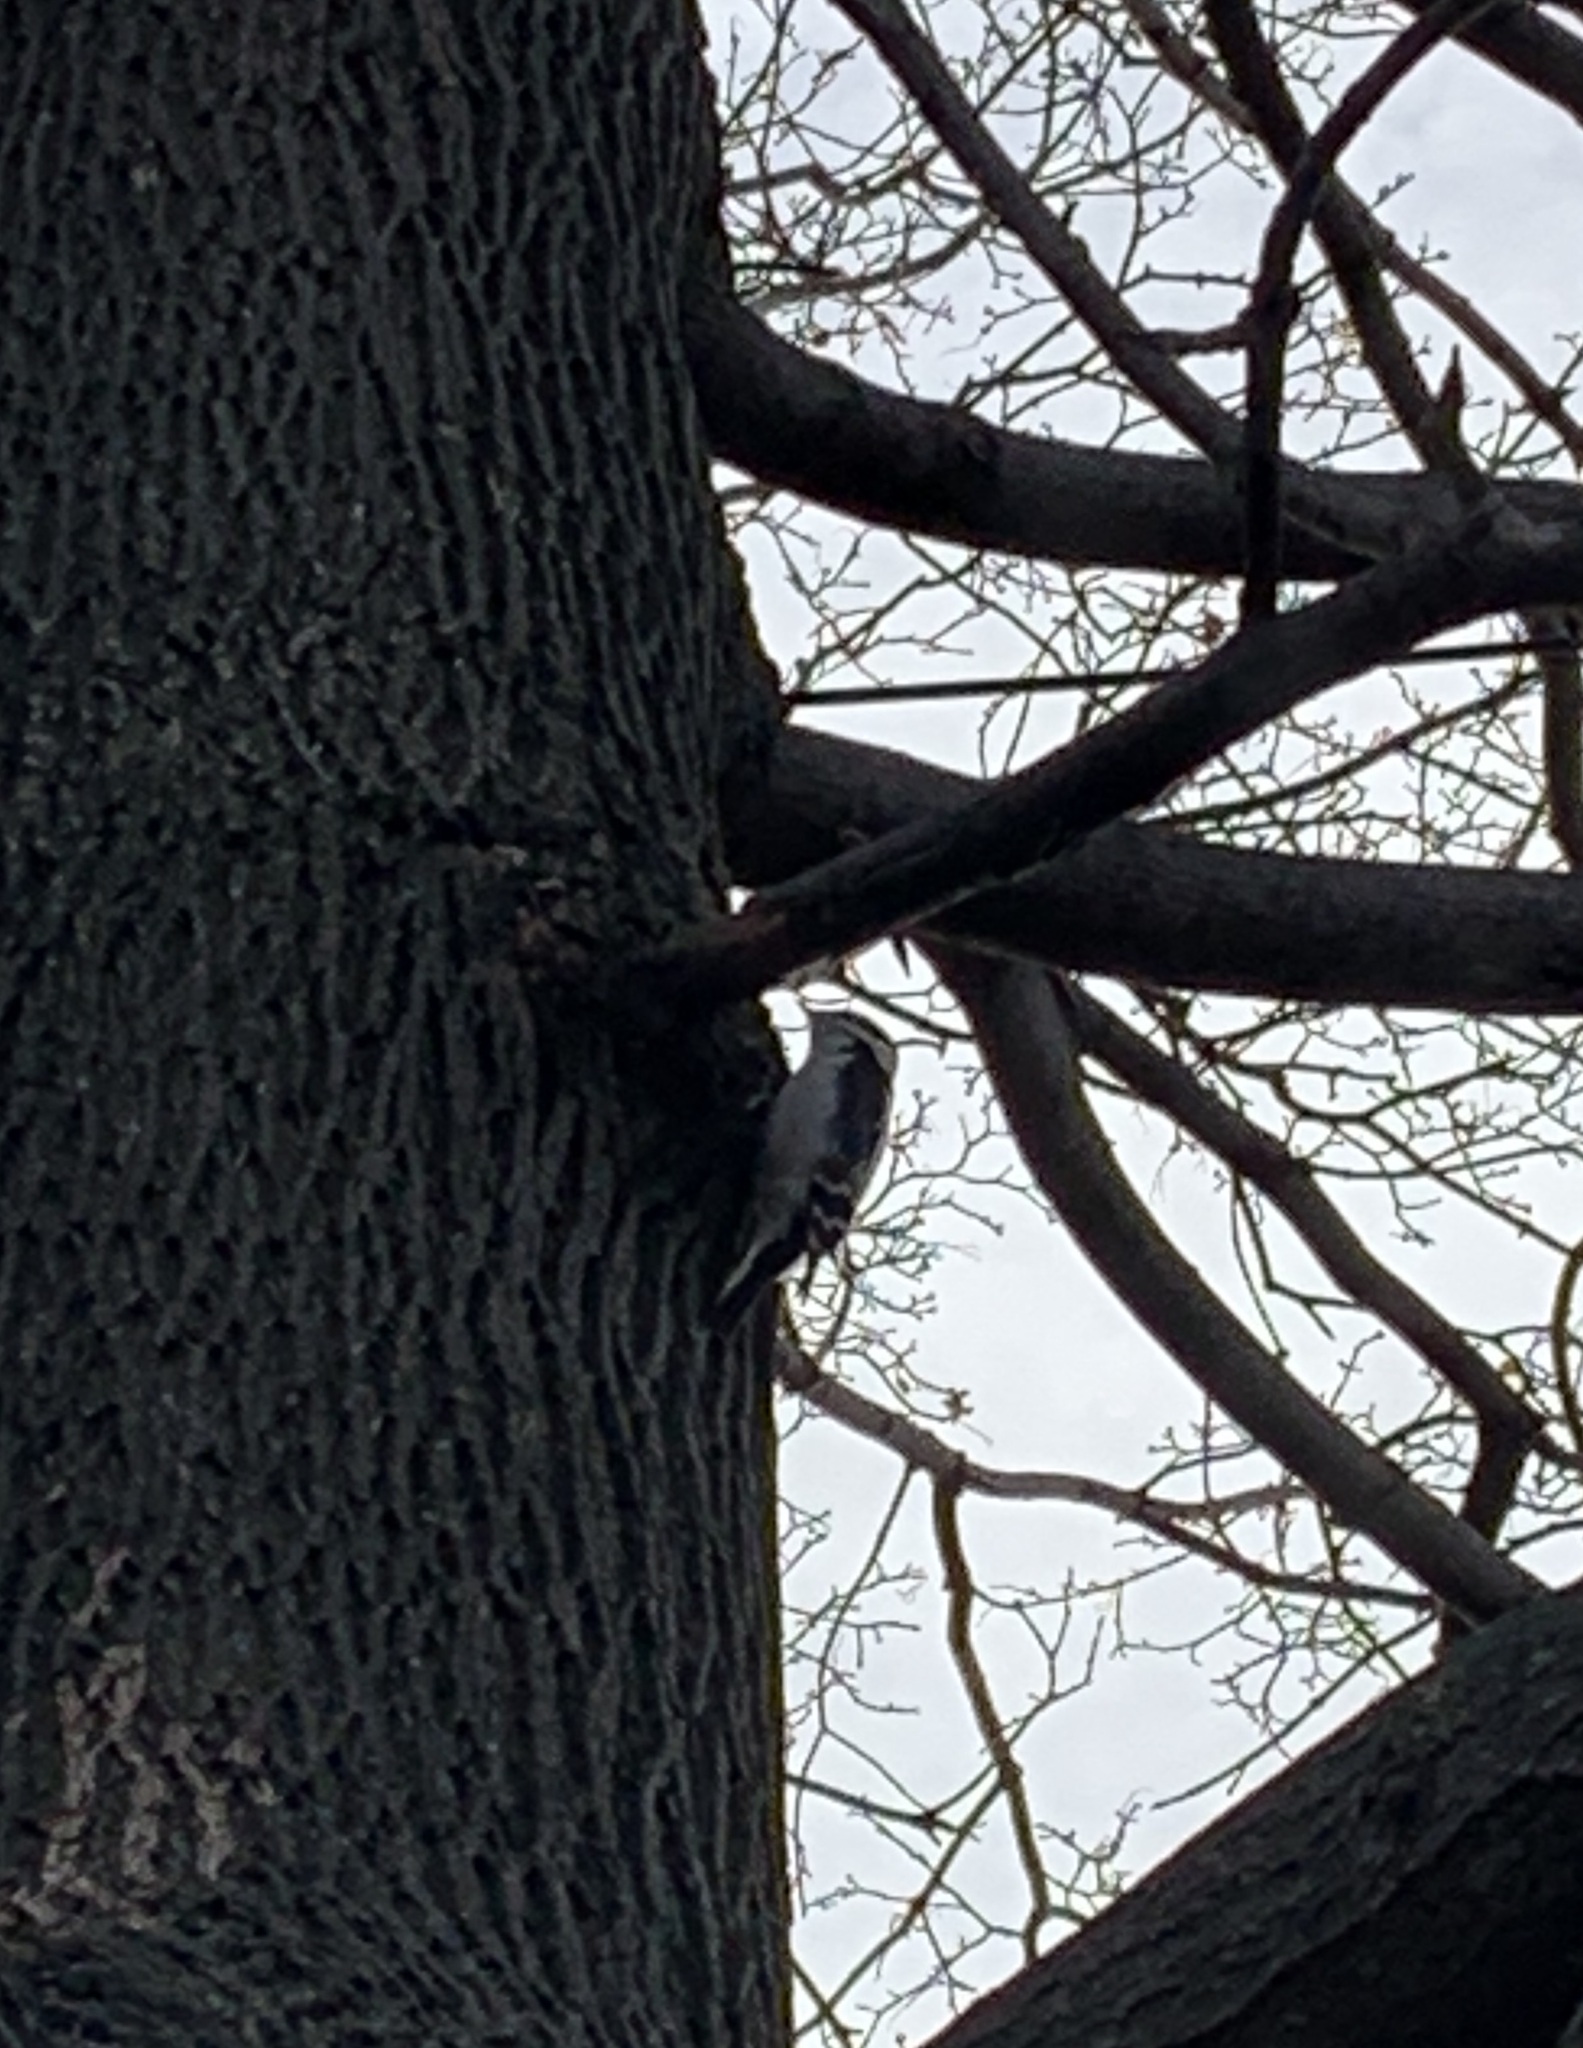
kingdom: Animalia
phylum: Chordata
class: Aves
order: Piciformes
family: Picidae
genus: Dryobates
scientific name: Dryobates pubescens
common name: Downy woodpecker
